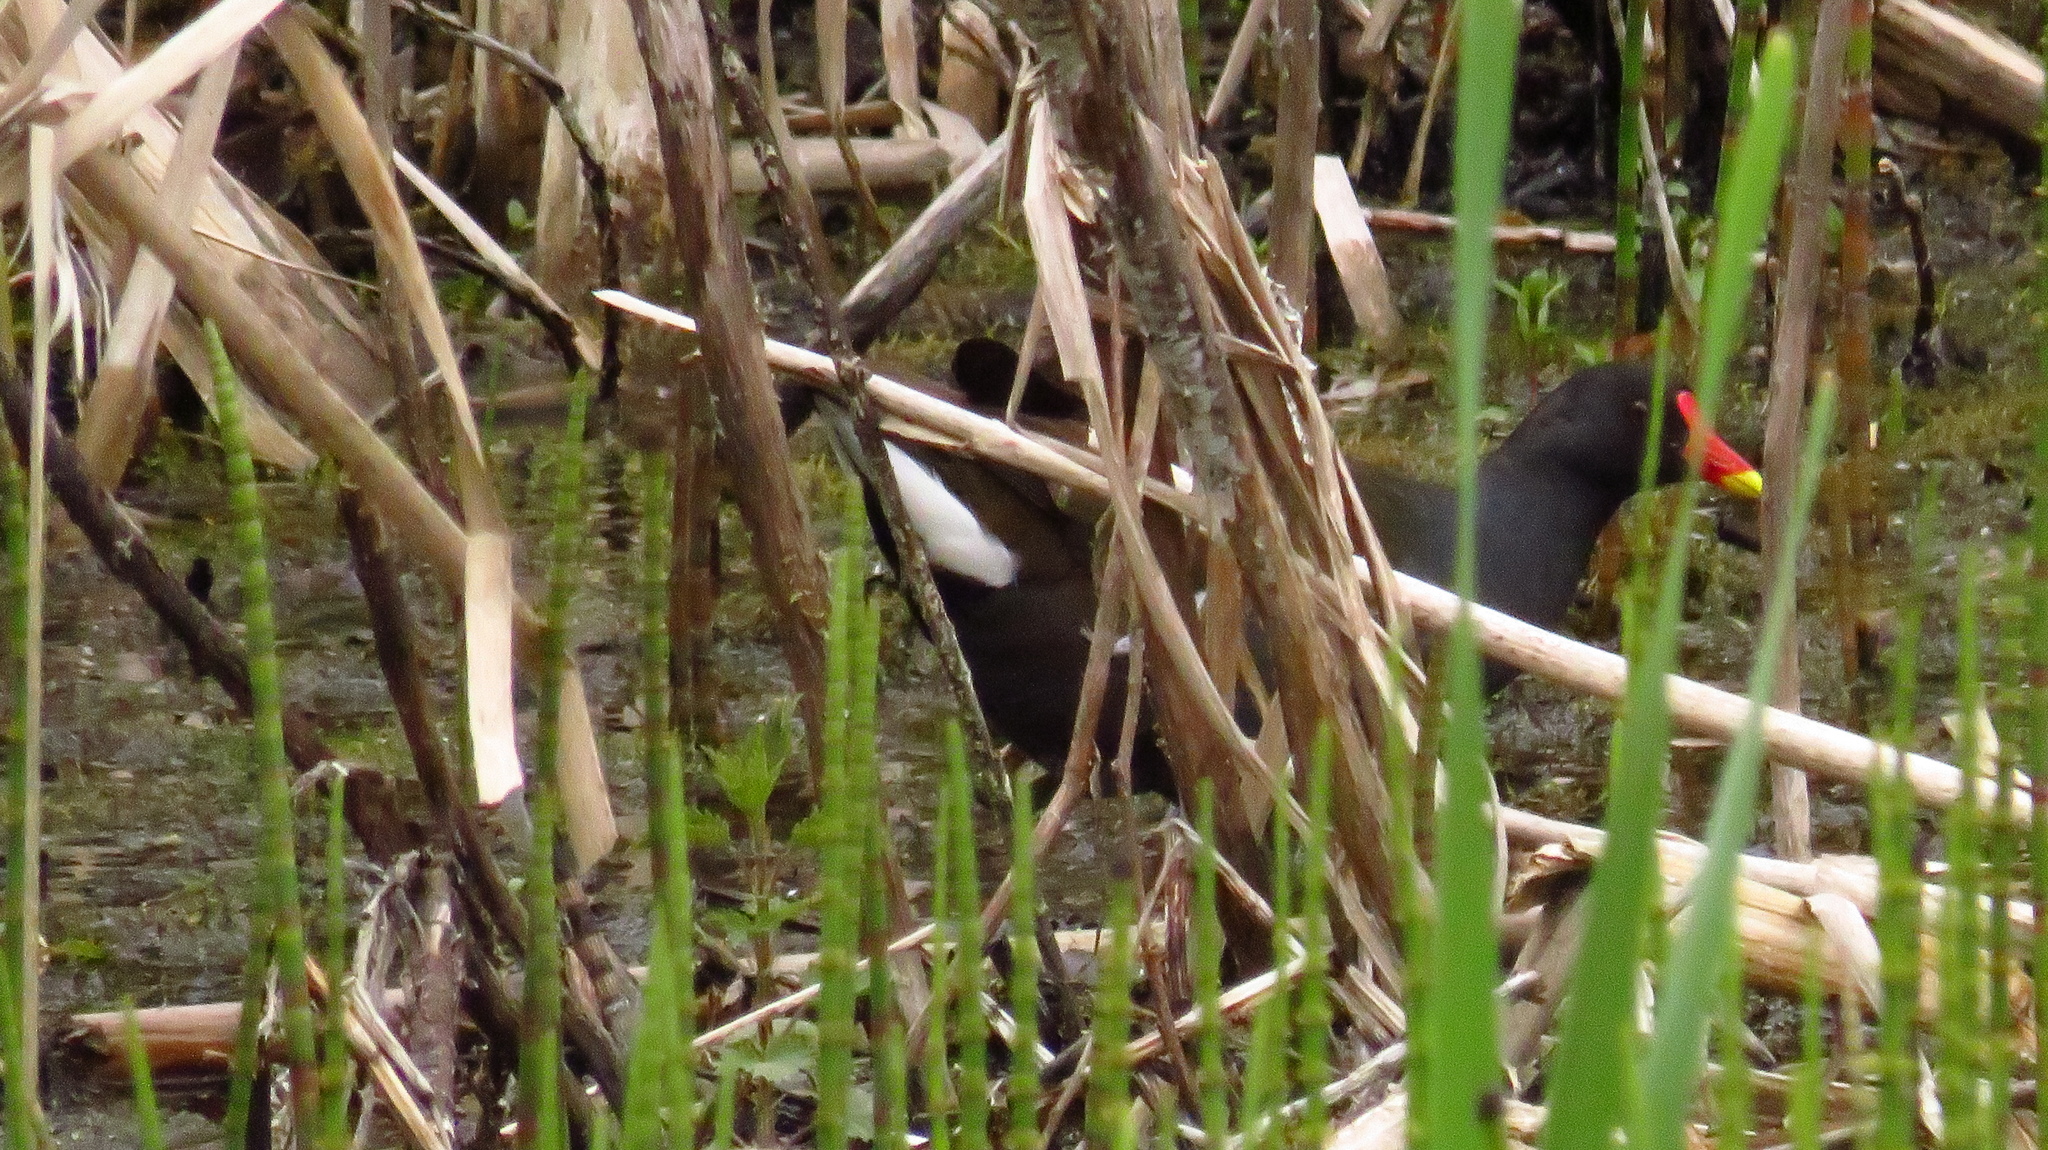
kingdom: Animalia
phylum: Chordata
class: Aves
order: Gruiformes
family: Rallidae
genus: Gallinula
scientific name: Gallinula chloropus
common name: Common moorhen
